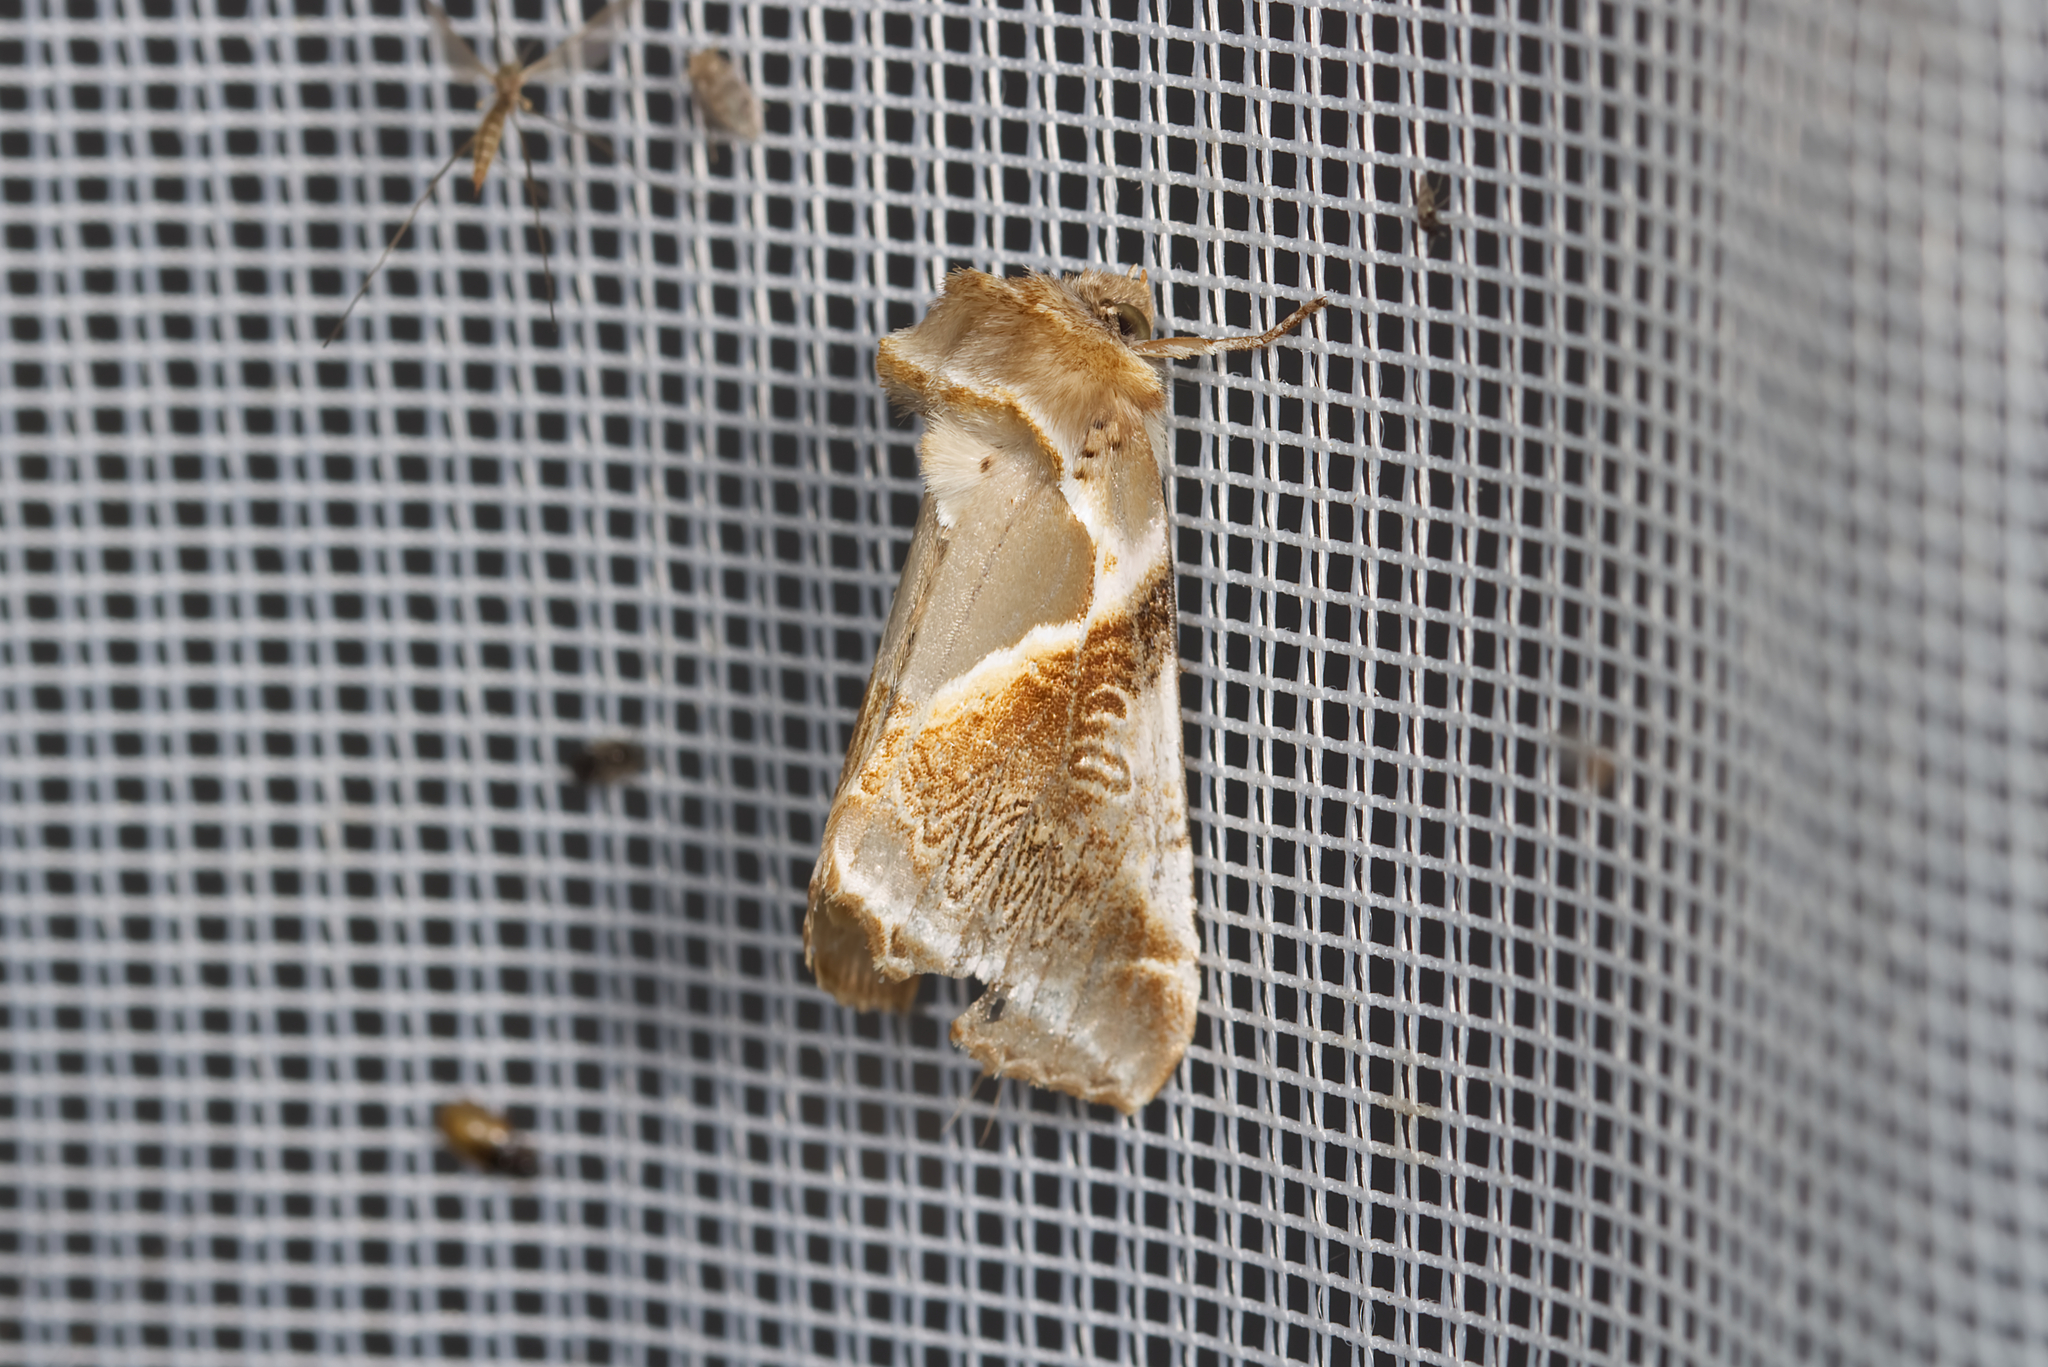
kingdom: Animalia
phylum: Arthropoda
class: Insecta
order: Lepidoptera
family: Drepanidae
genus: Habrosyne
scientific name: Habrosyne pyritoides
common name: Buff arches
